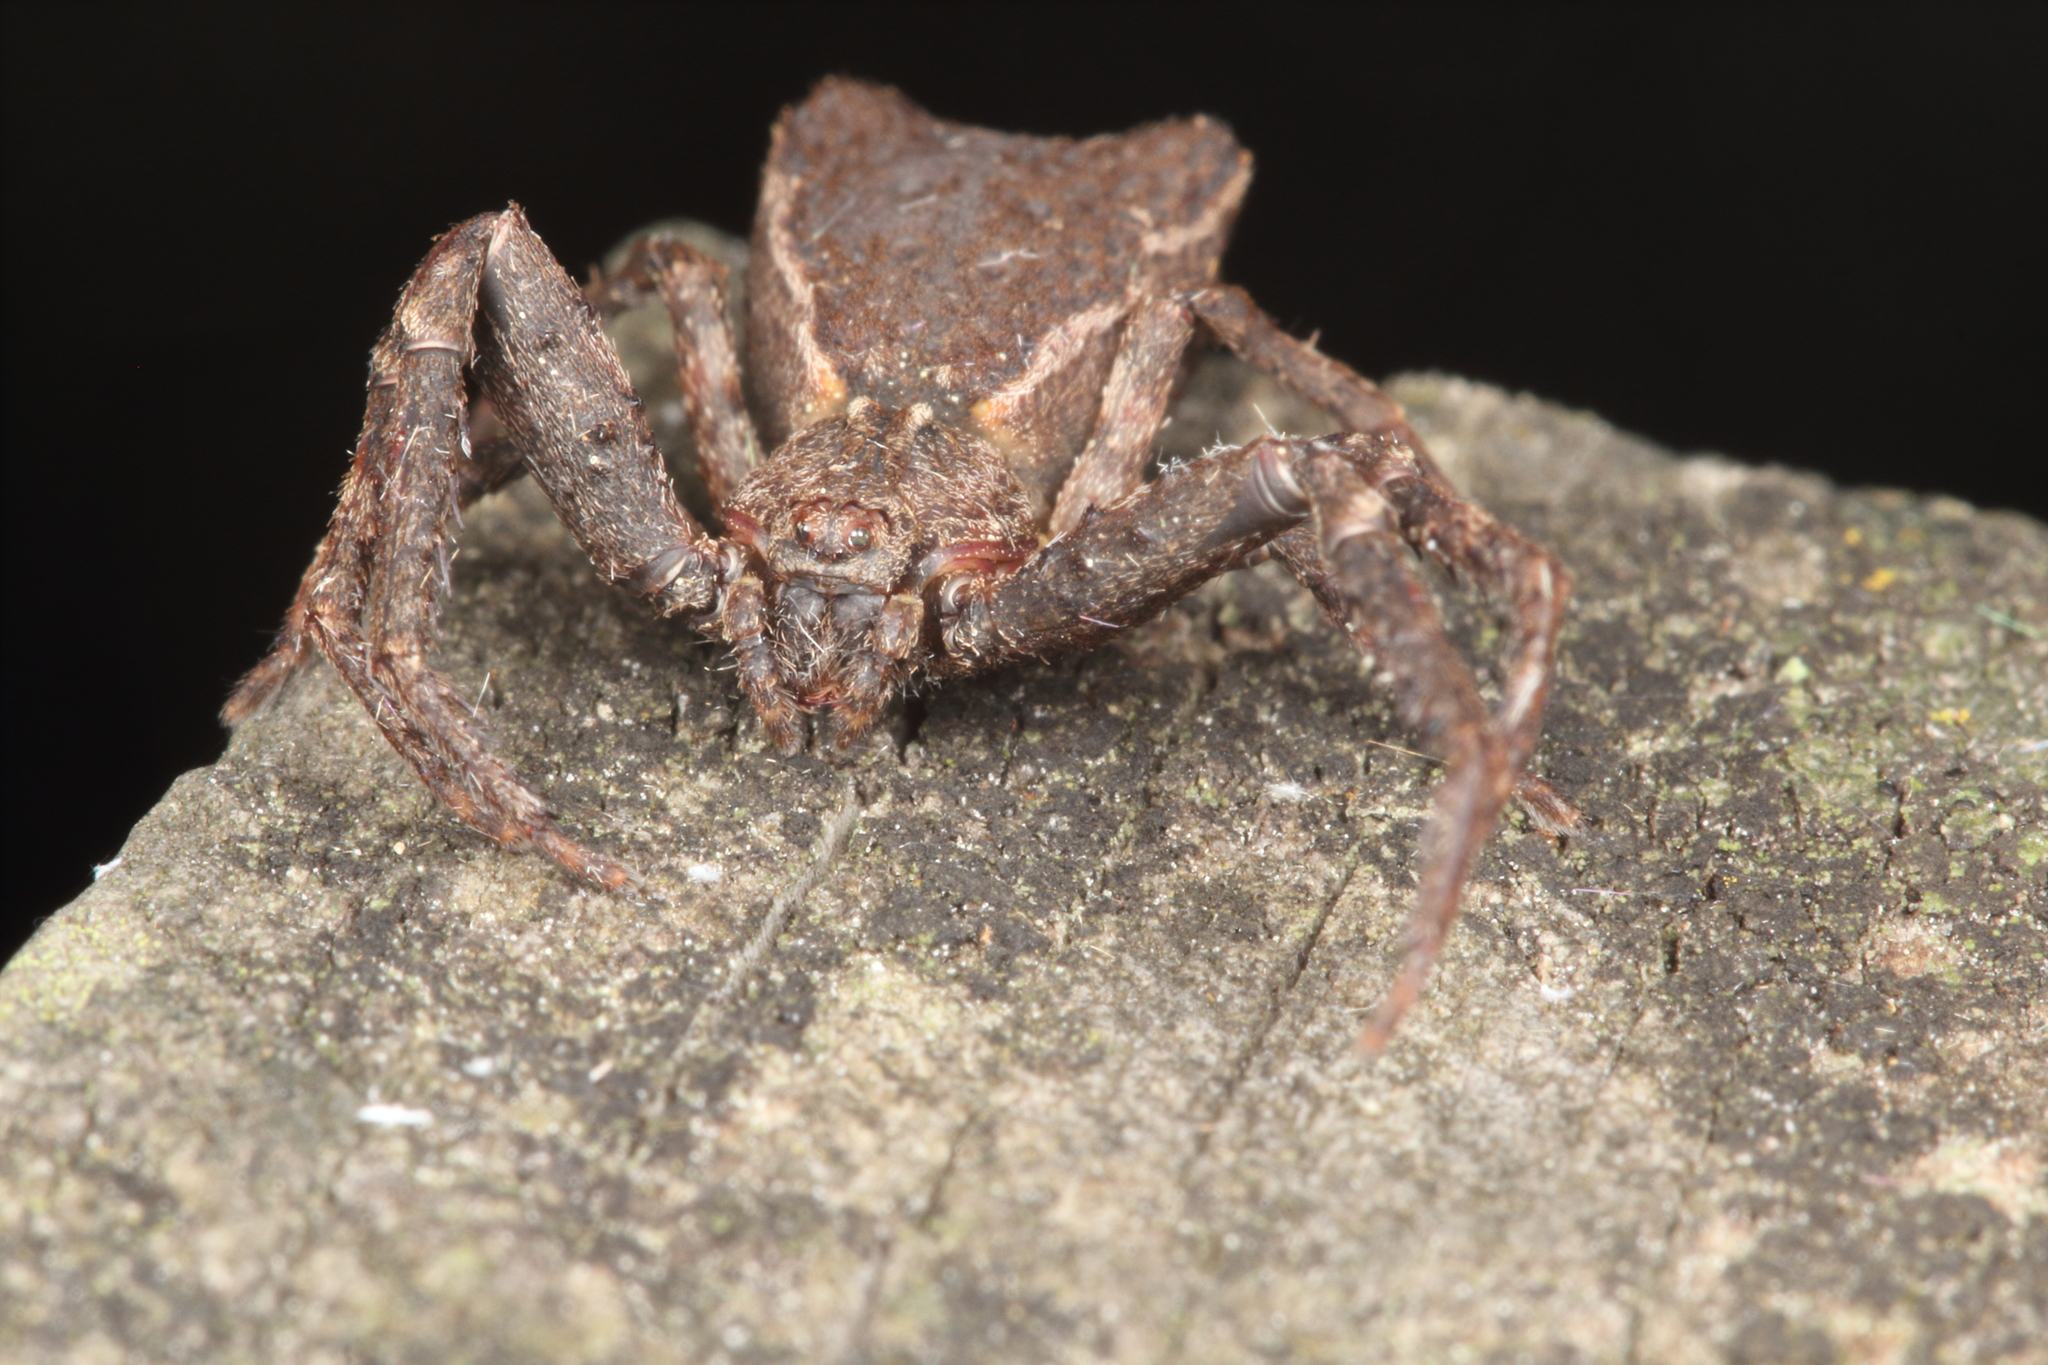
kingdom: Animalia
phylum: Arthropoda
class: Arachnida
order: Araneae
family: Thomisidae
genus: Sidymella
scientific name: Sidymella angularis
